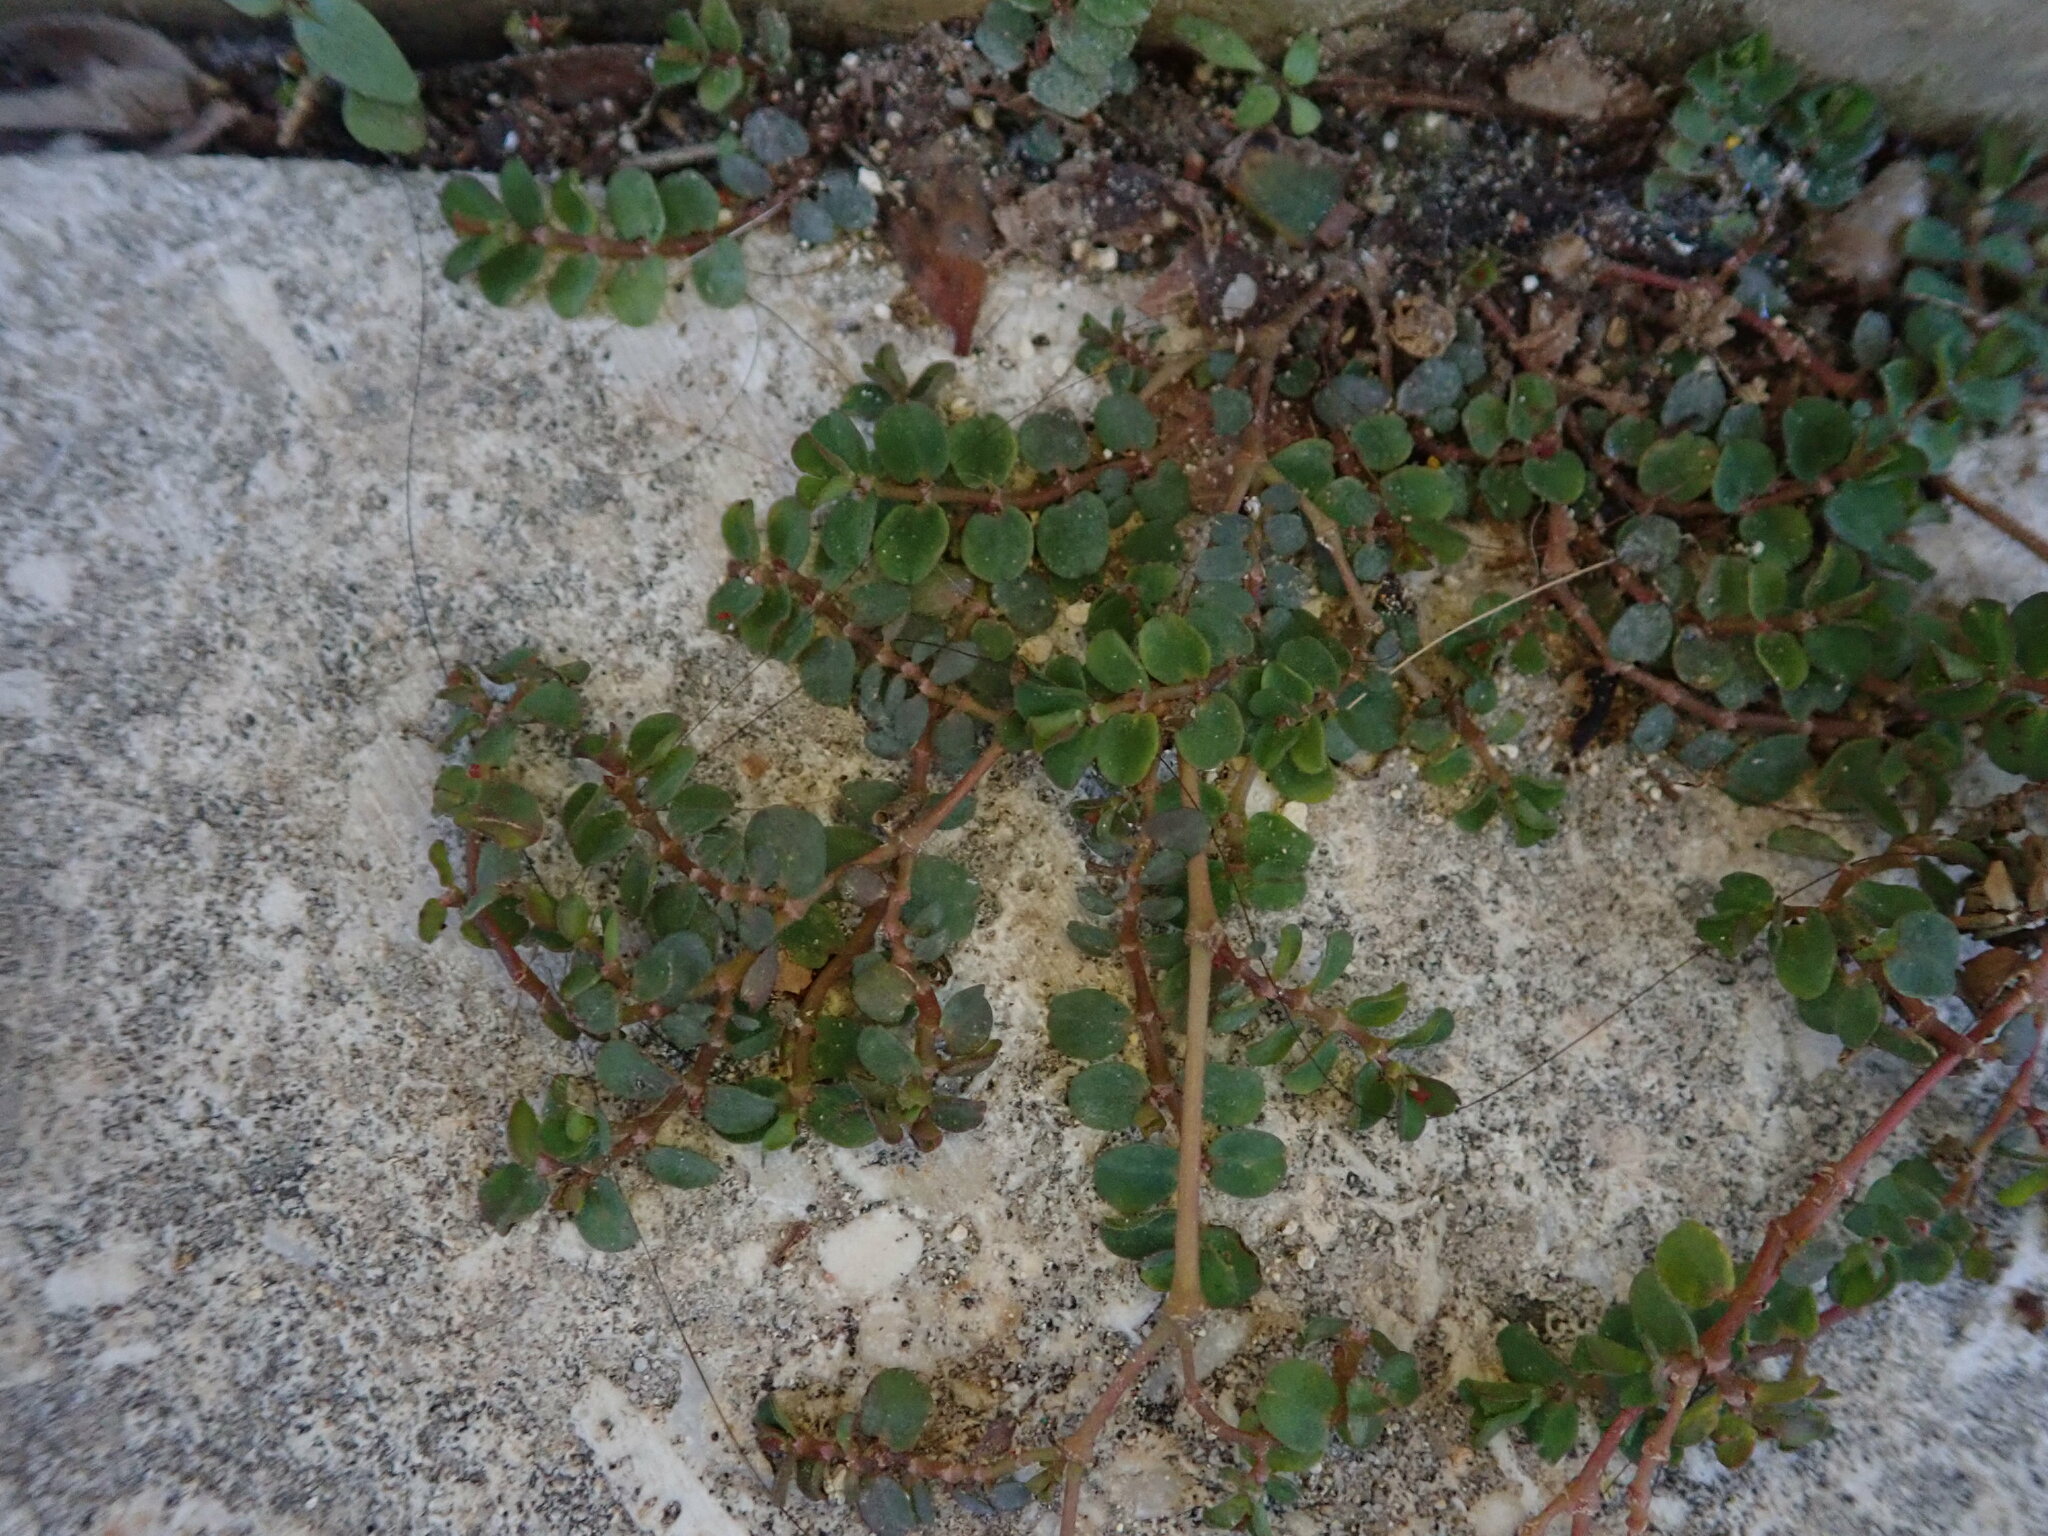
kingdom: Plantae
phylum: Tracheophyta
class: Magnoliopsida
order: Malpighiales
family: Euphorbiaceae
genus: Euphorbia
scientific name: Euphorbia serpens
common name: Matted sandmat
